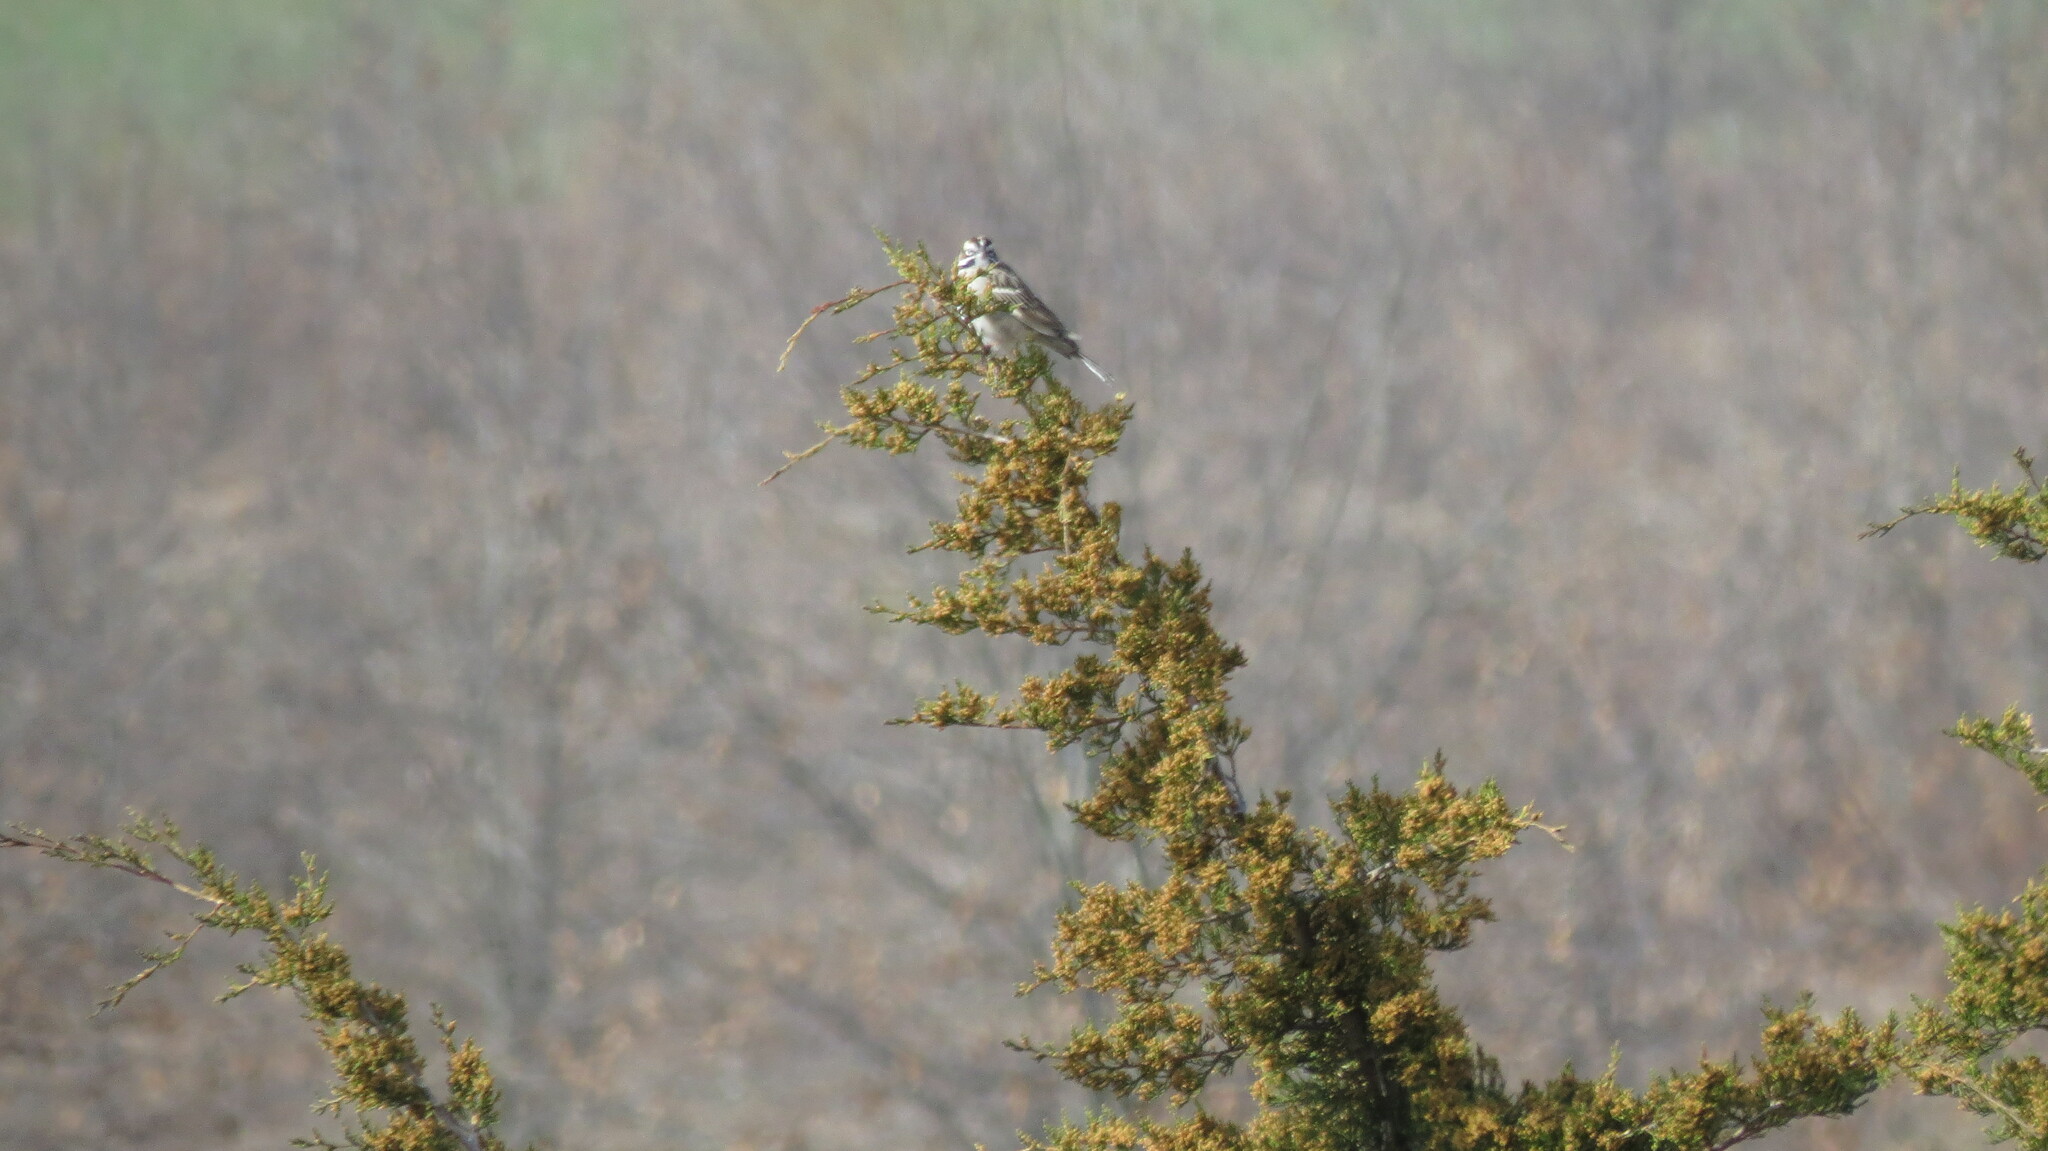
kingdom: Animalia
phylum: Chordata
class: Aves
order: Passeriformes
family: Passerellidae
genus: Chondestes
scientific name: Chondestes grammacus
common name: Lark sparrow
